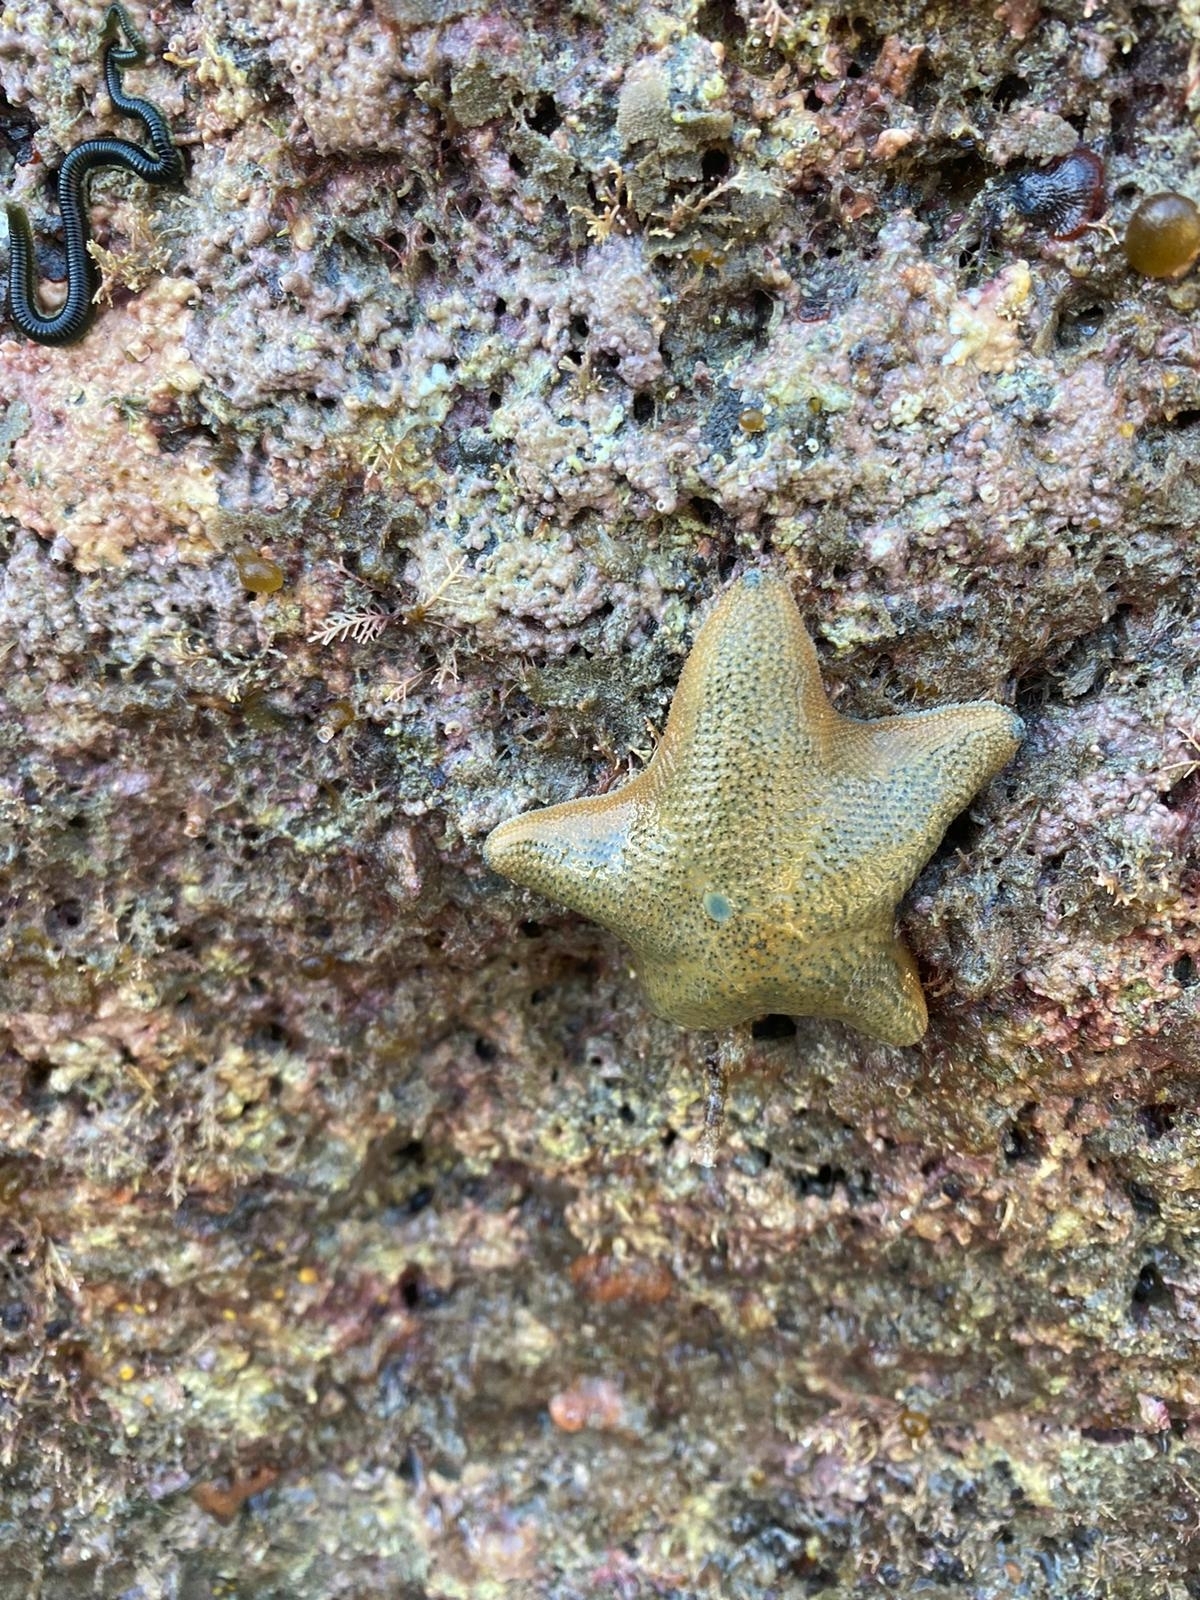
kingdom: Animalia
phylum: Echinodermata
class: Asteroidea
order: Valvatida
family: Asterinidae
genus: Patiriella
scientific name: Patiriella regularis
